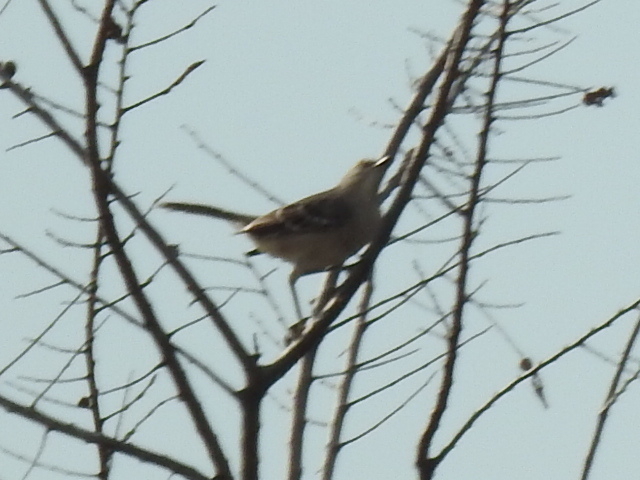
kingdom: Animalia
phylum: Chordata
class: Aves
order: Passeriformes
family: Mimidae
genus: Mimus
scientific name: Mimus polyglottos
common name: Northern mockingbird
